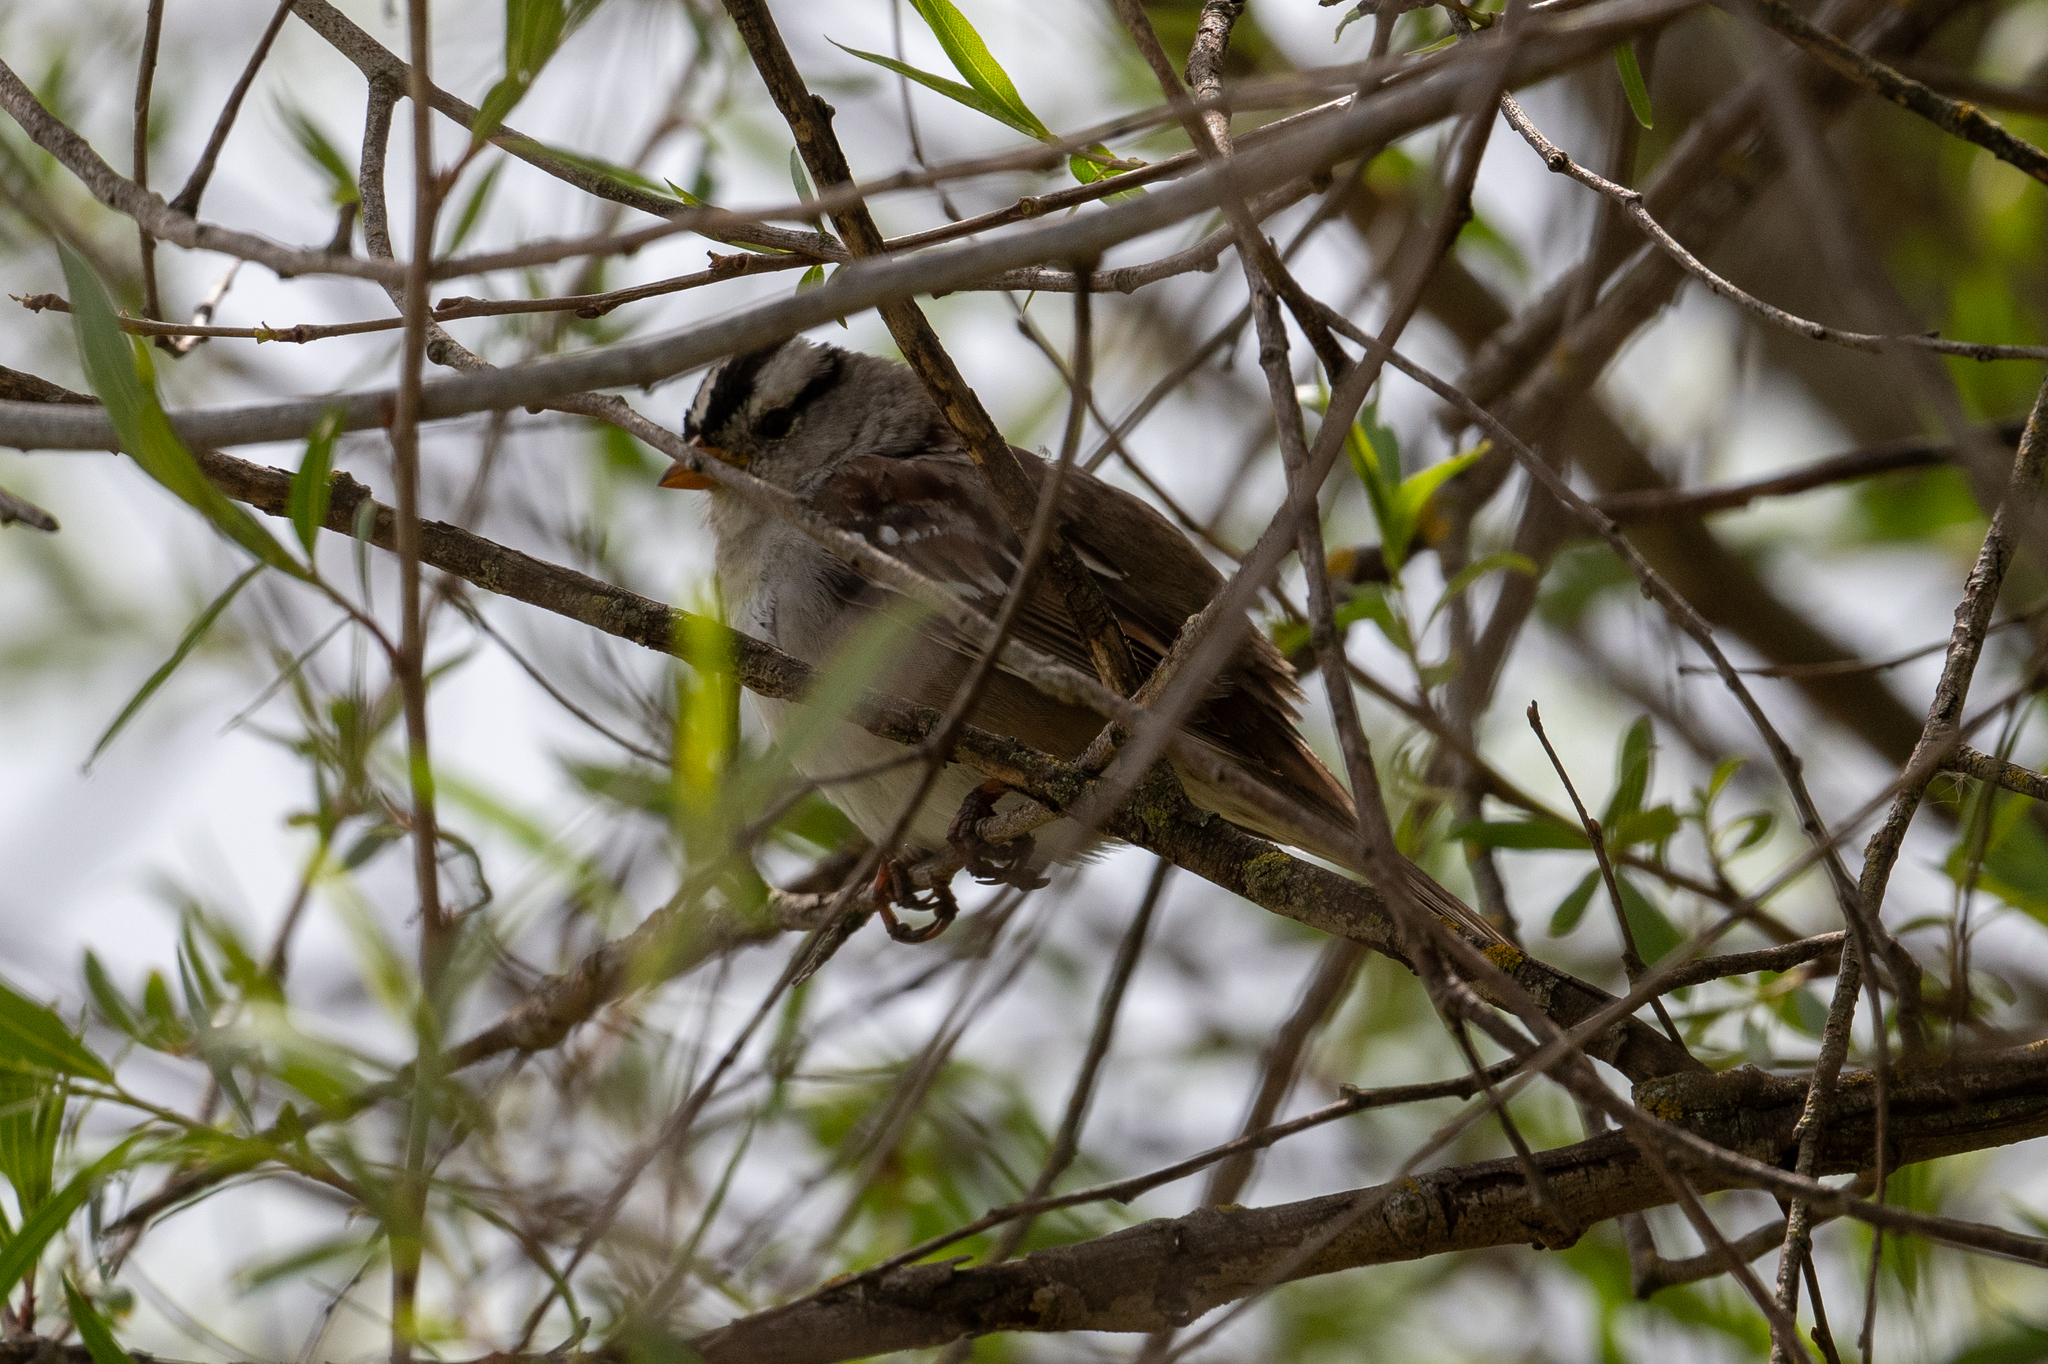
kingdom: Animalia
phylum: Chordata
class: Aves
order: Passeriformes
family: Passerellidae
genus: Zonotrichia
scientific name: Zonotrichia leucophrys
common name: White-crowned sparrow
